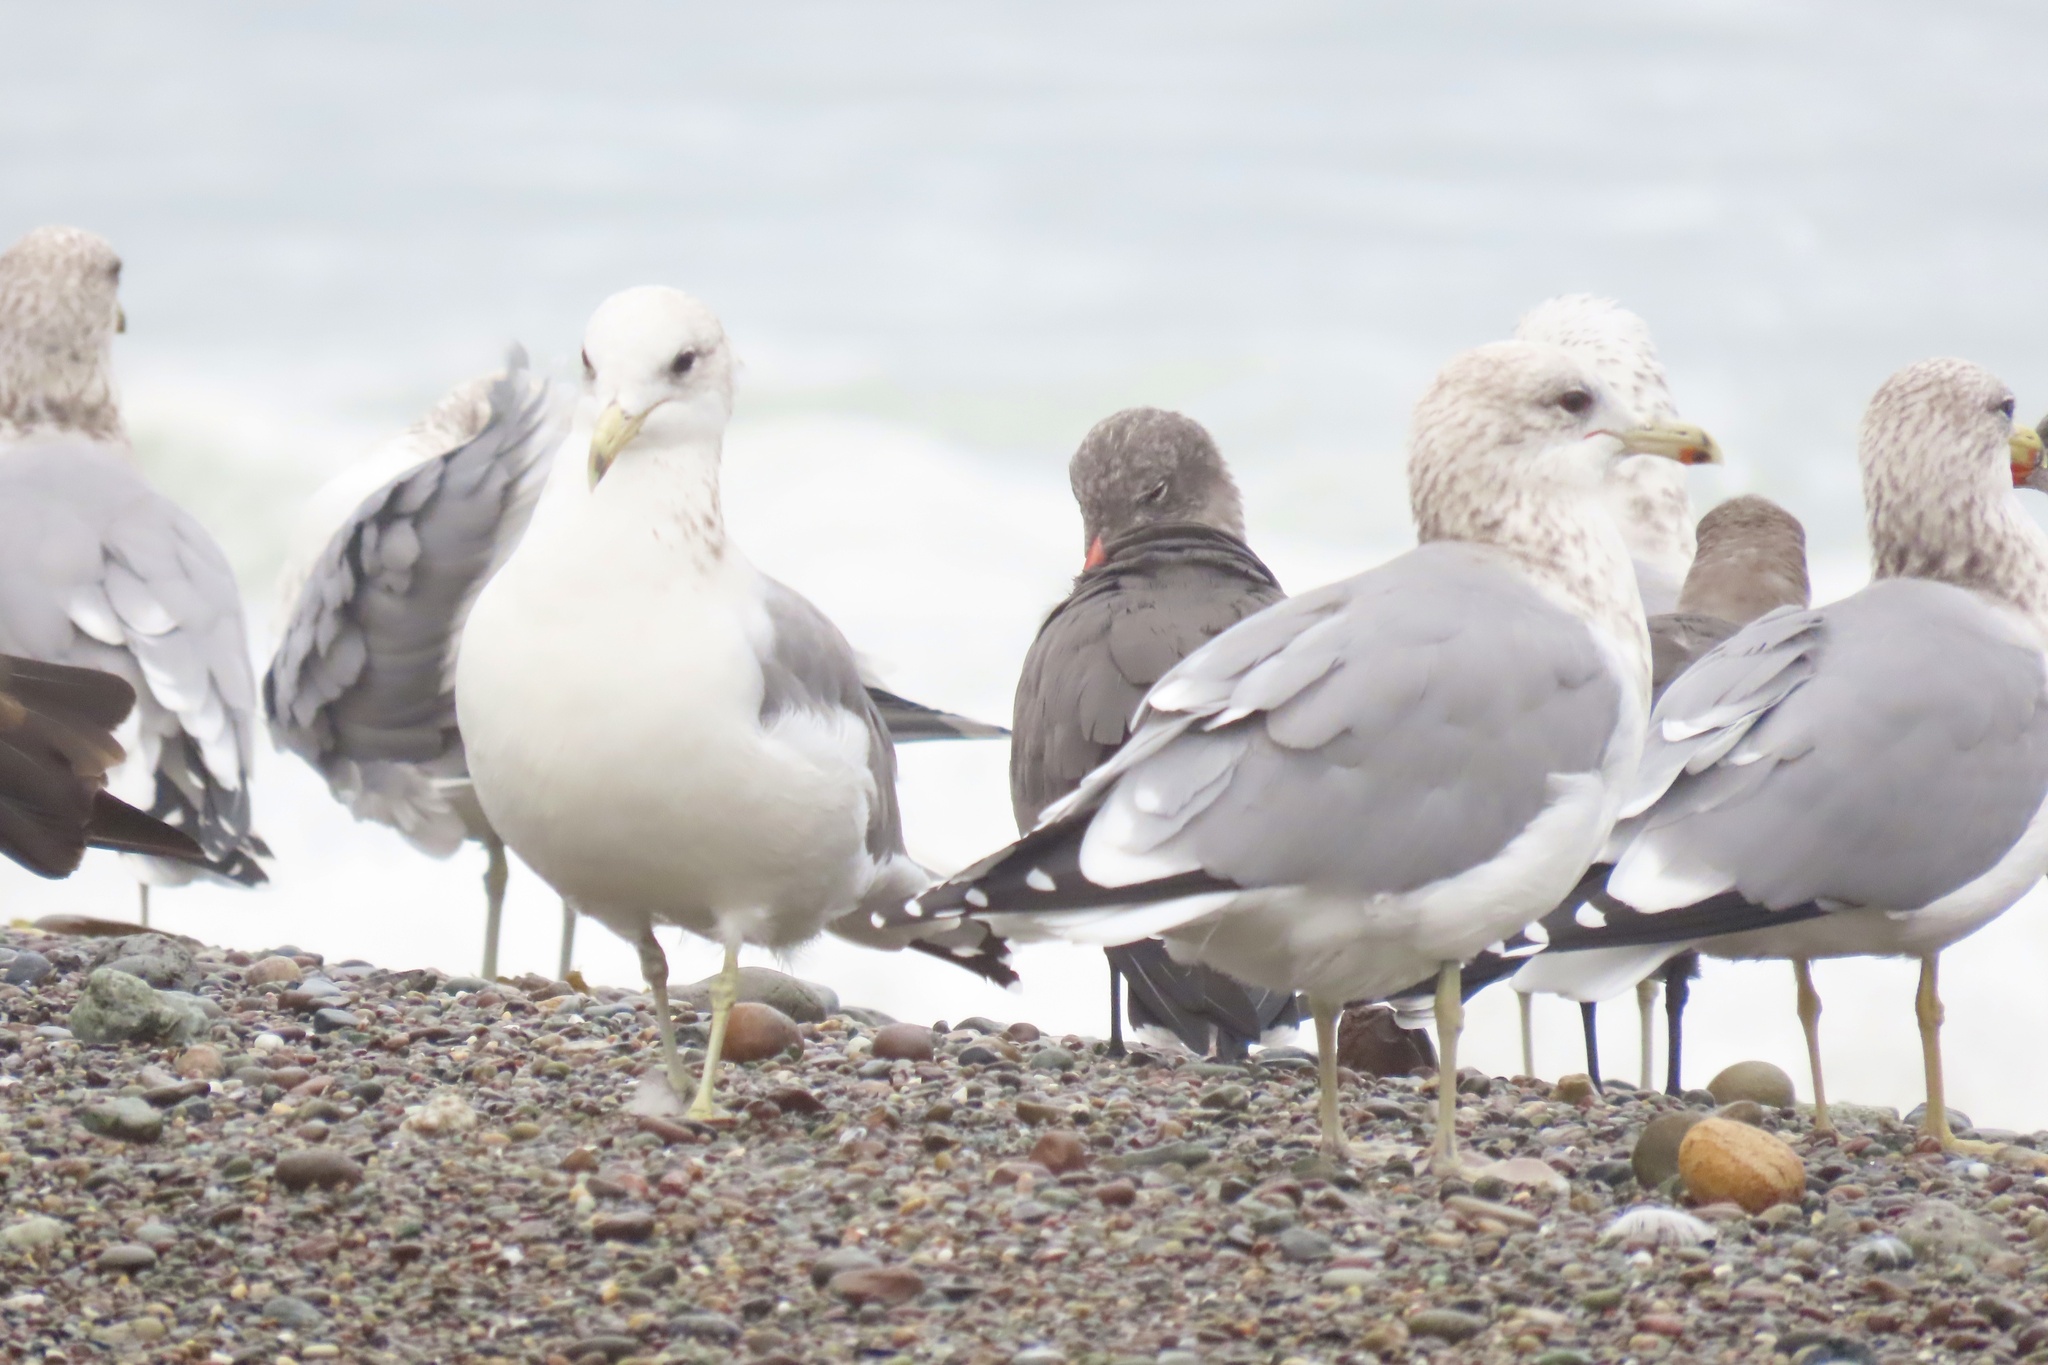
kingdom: Animalia
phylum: Chordata
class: Aves
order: Charadriiformes
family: Laridae
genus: Larus
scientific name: Larus californicus
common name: California gull
